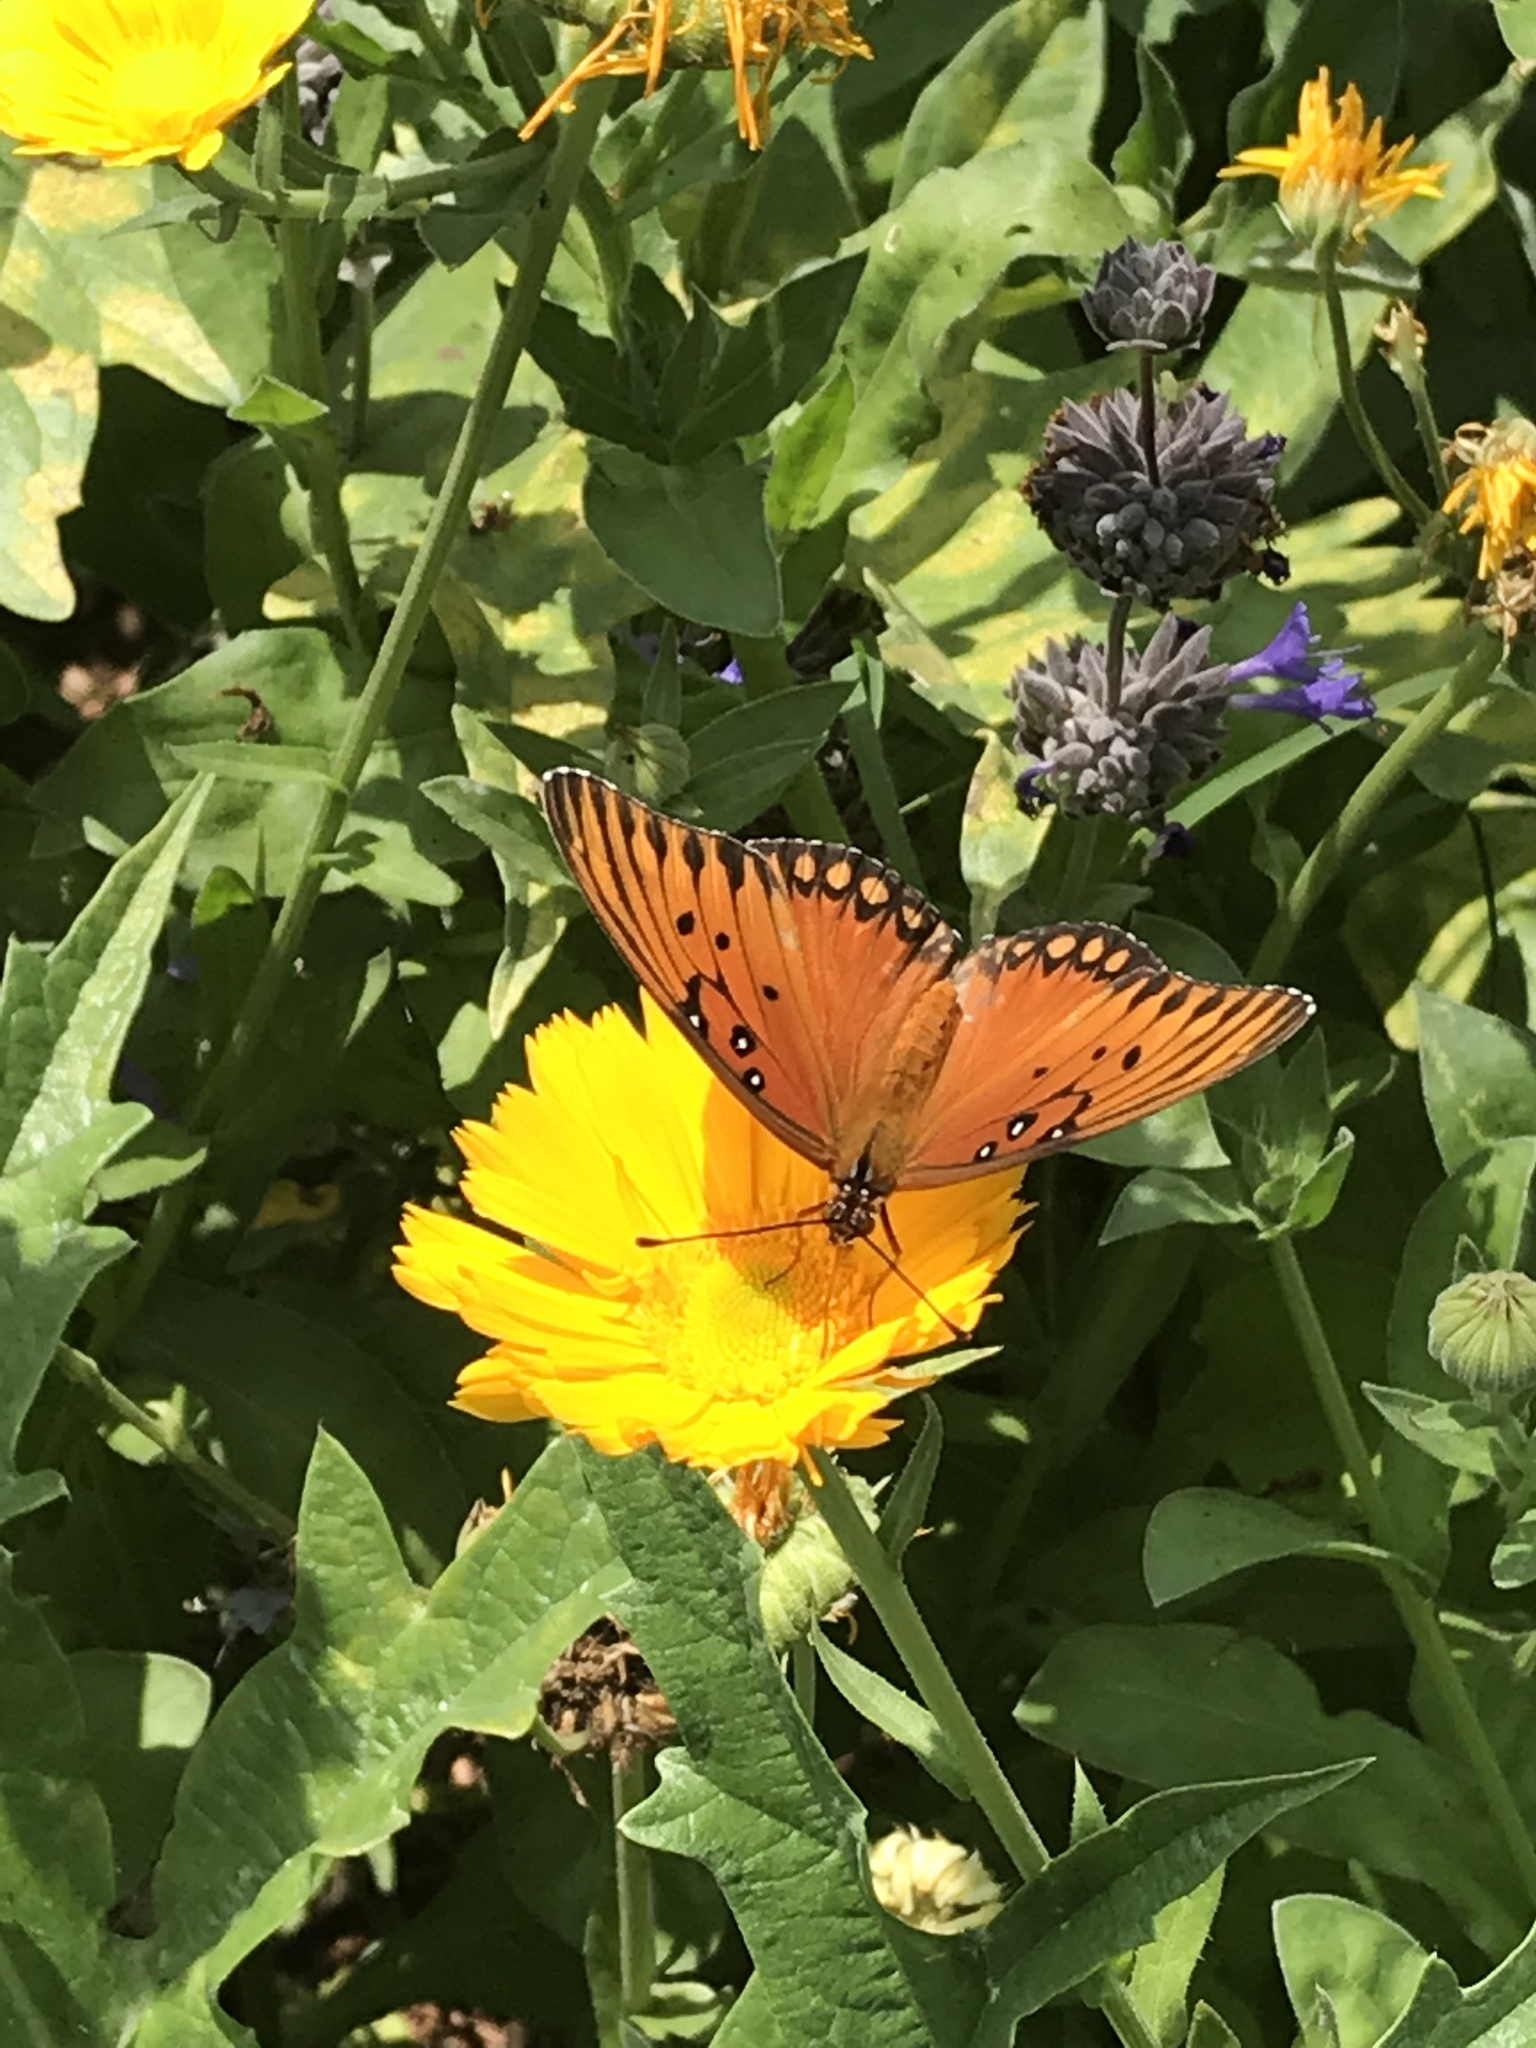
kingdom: Animalia
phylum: Arthropoda
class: Insecta
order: Lepidoptera
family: Nymphalidae
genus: Dione
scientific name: Dione vanillae
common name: Gulf fritillary
